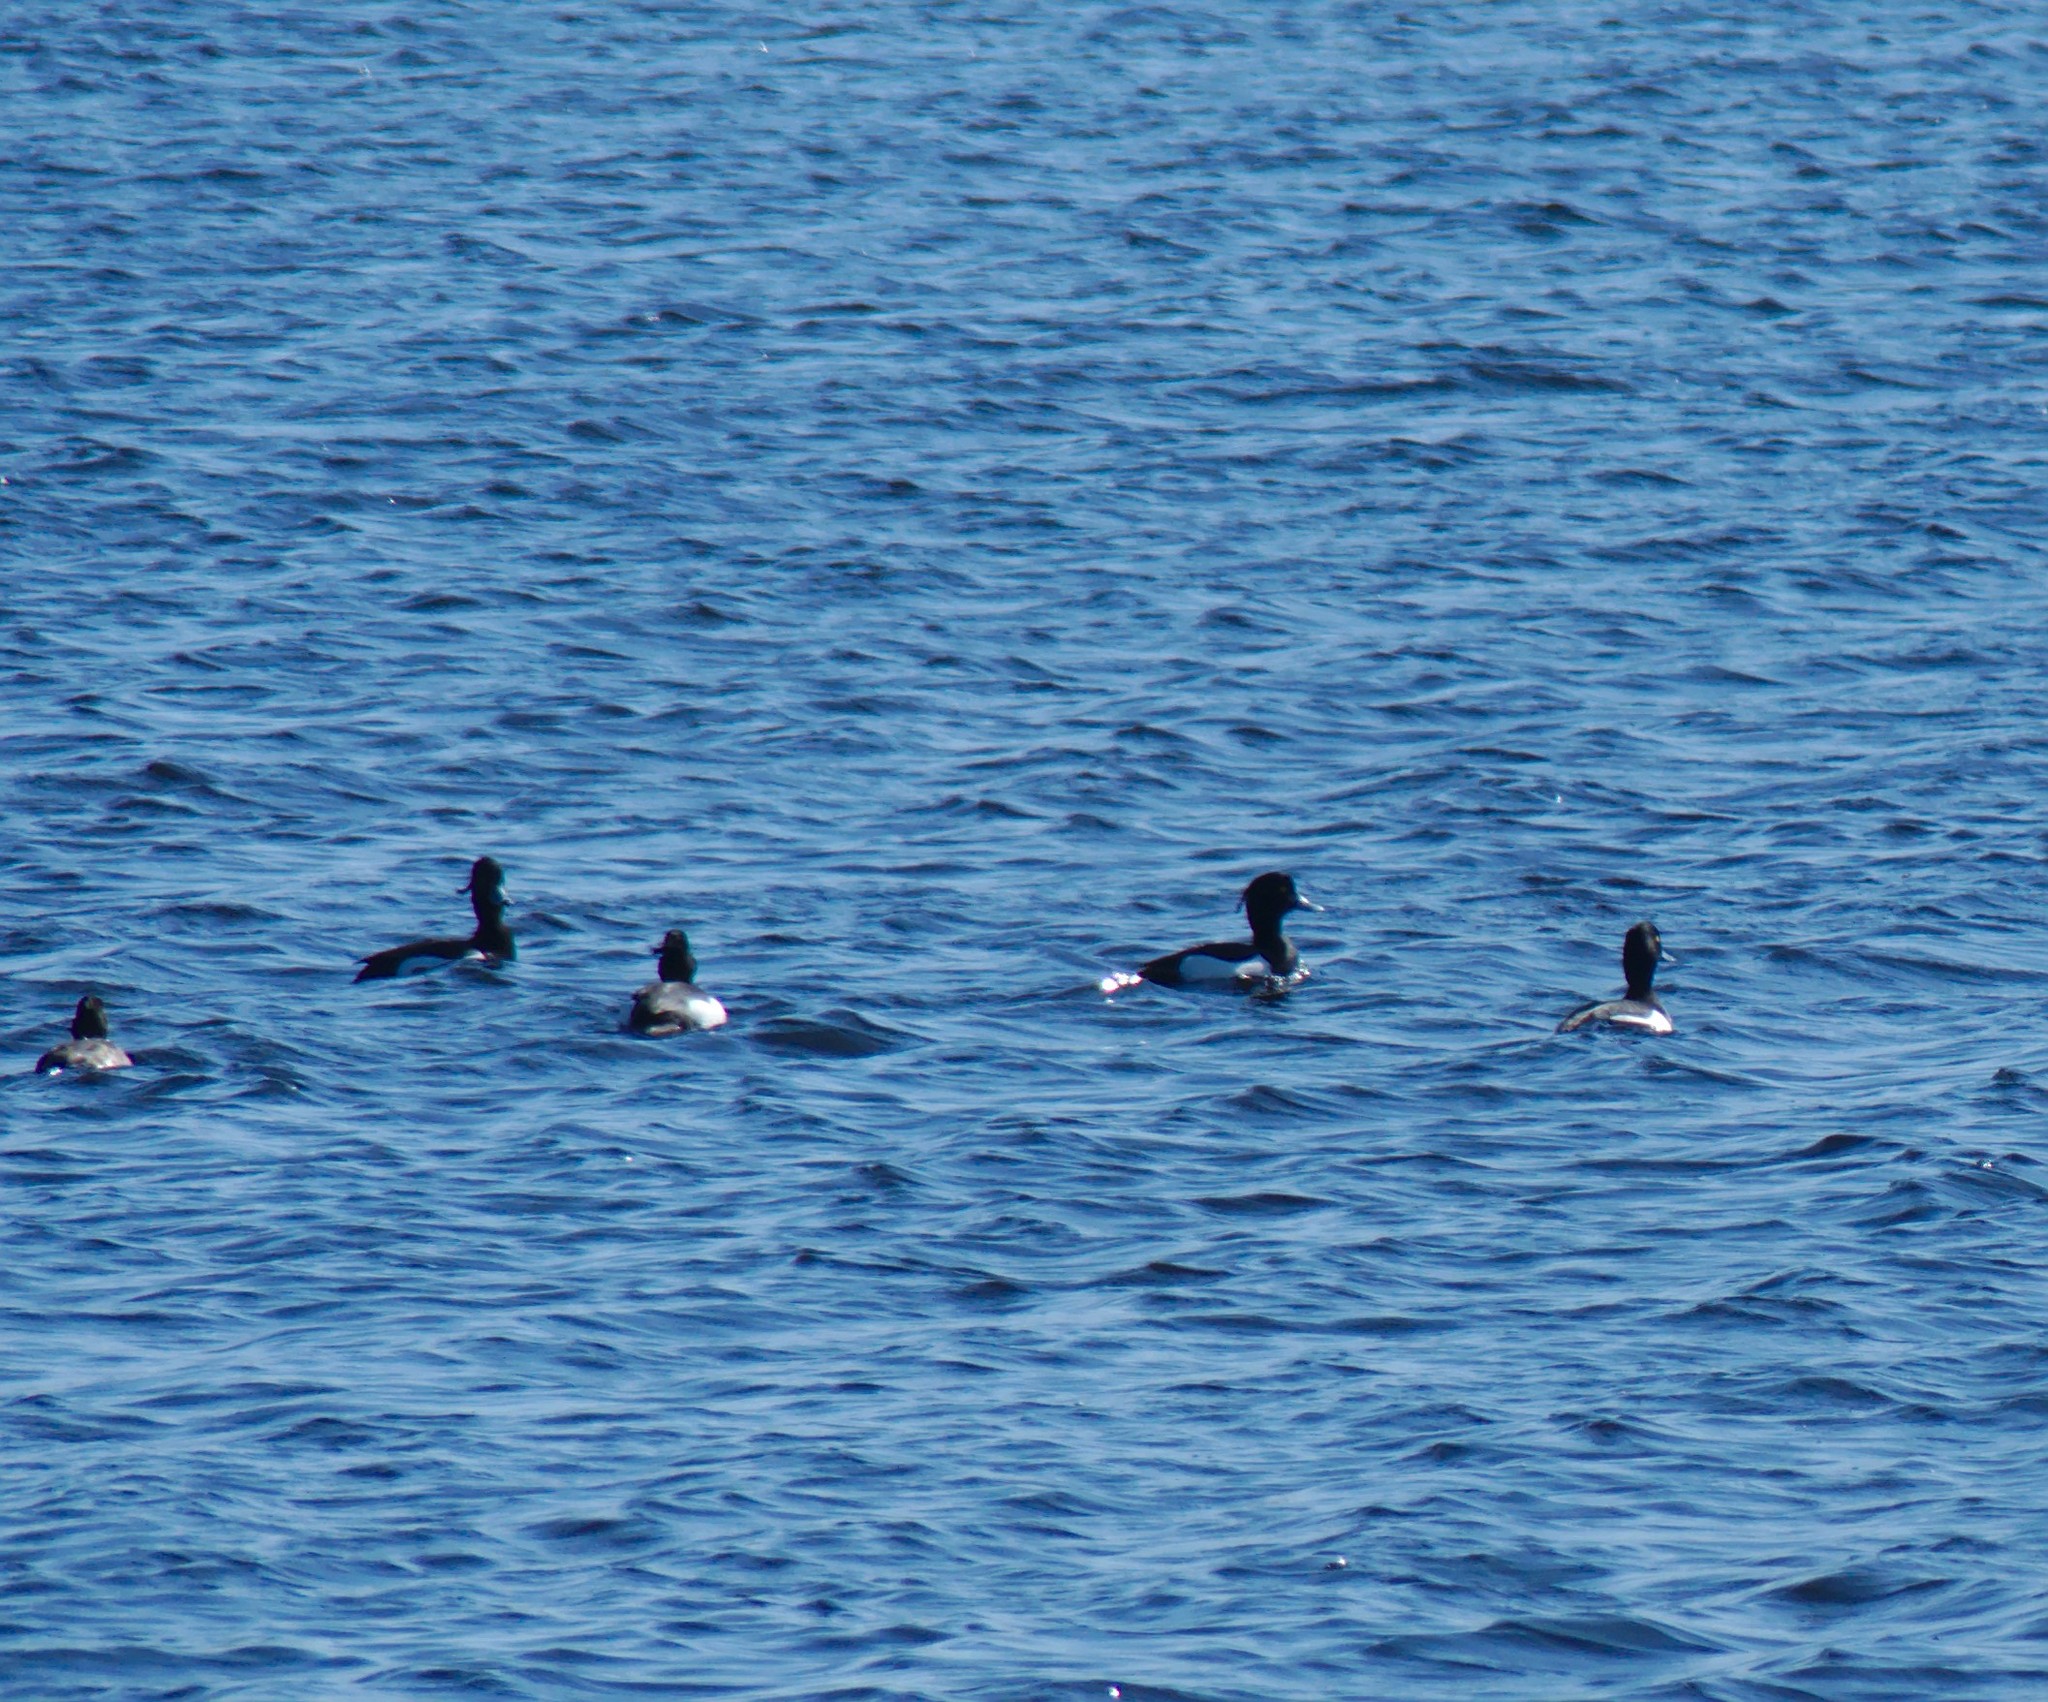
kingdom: Animalia
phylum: Chordata
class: Aves
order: Anseriformes
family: Anatidae
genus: Aythya
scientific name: Aythya fuligula
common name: Tufted duck
